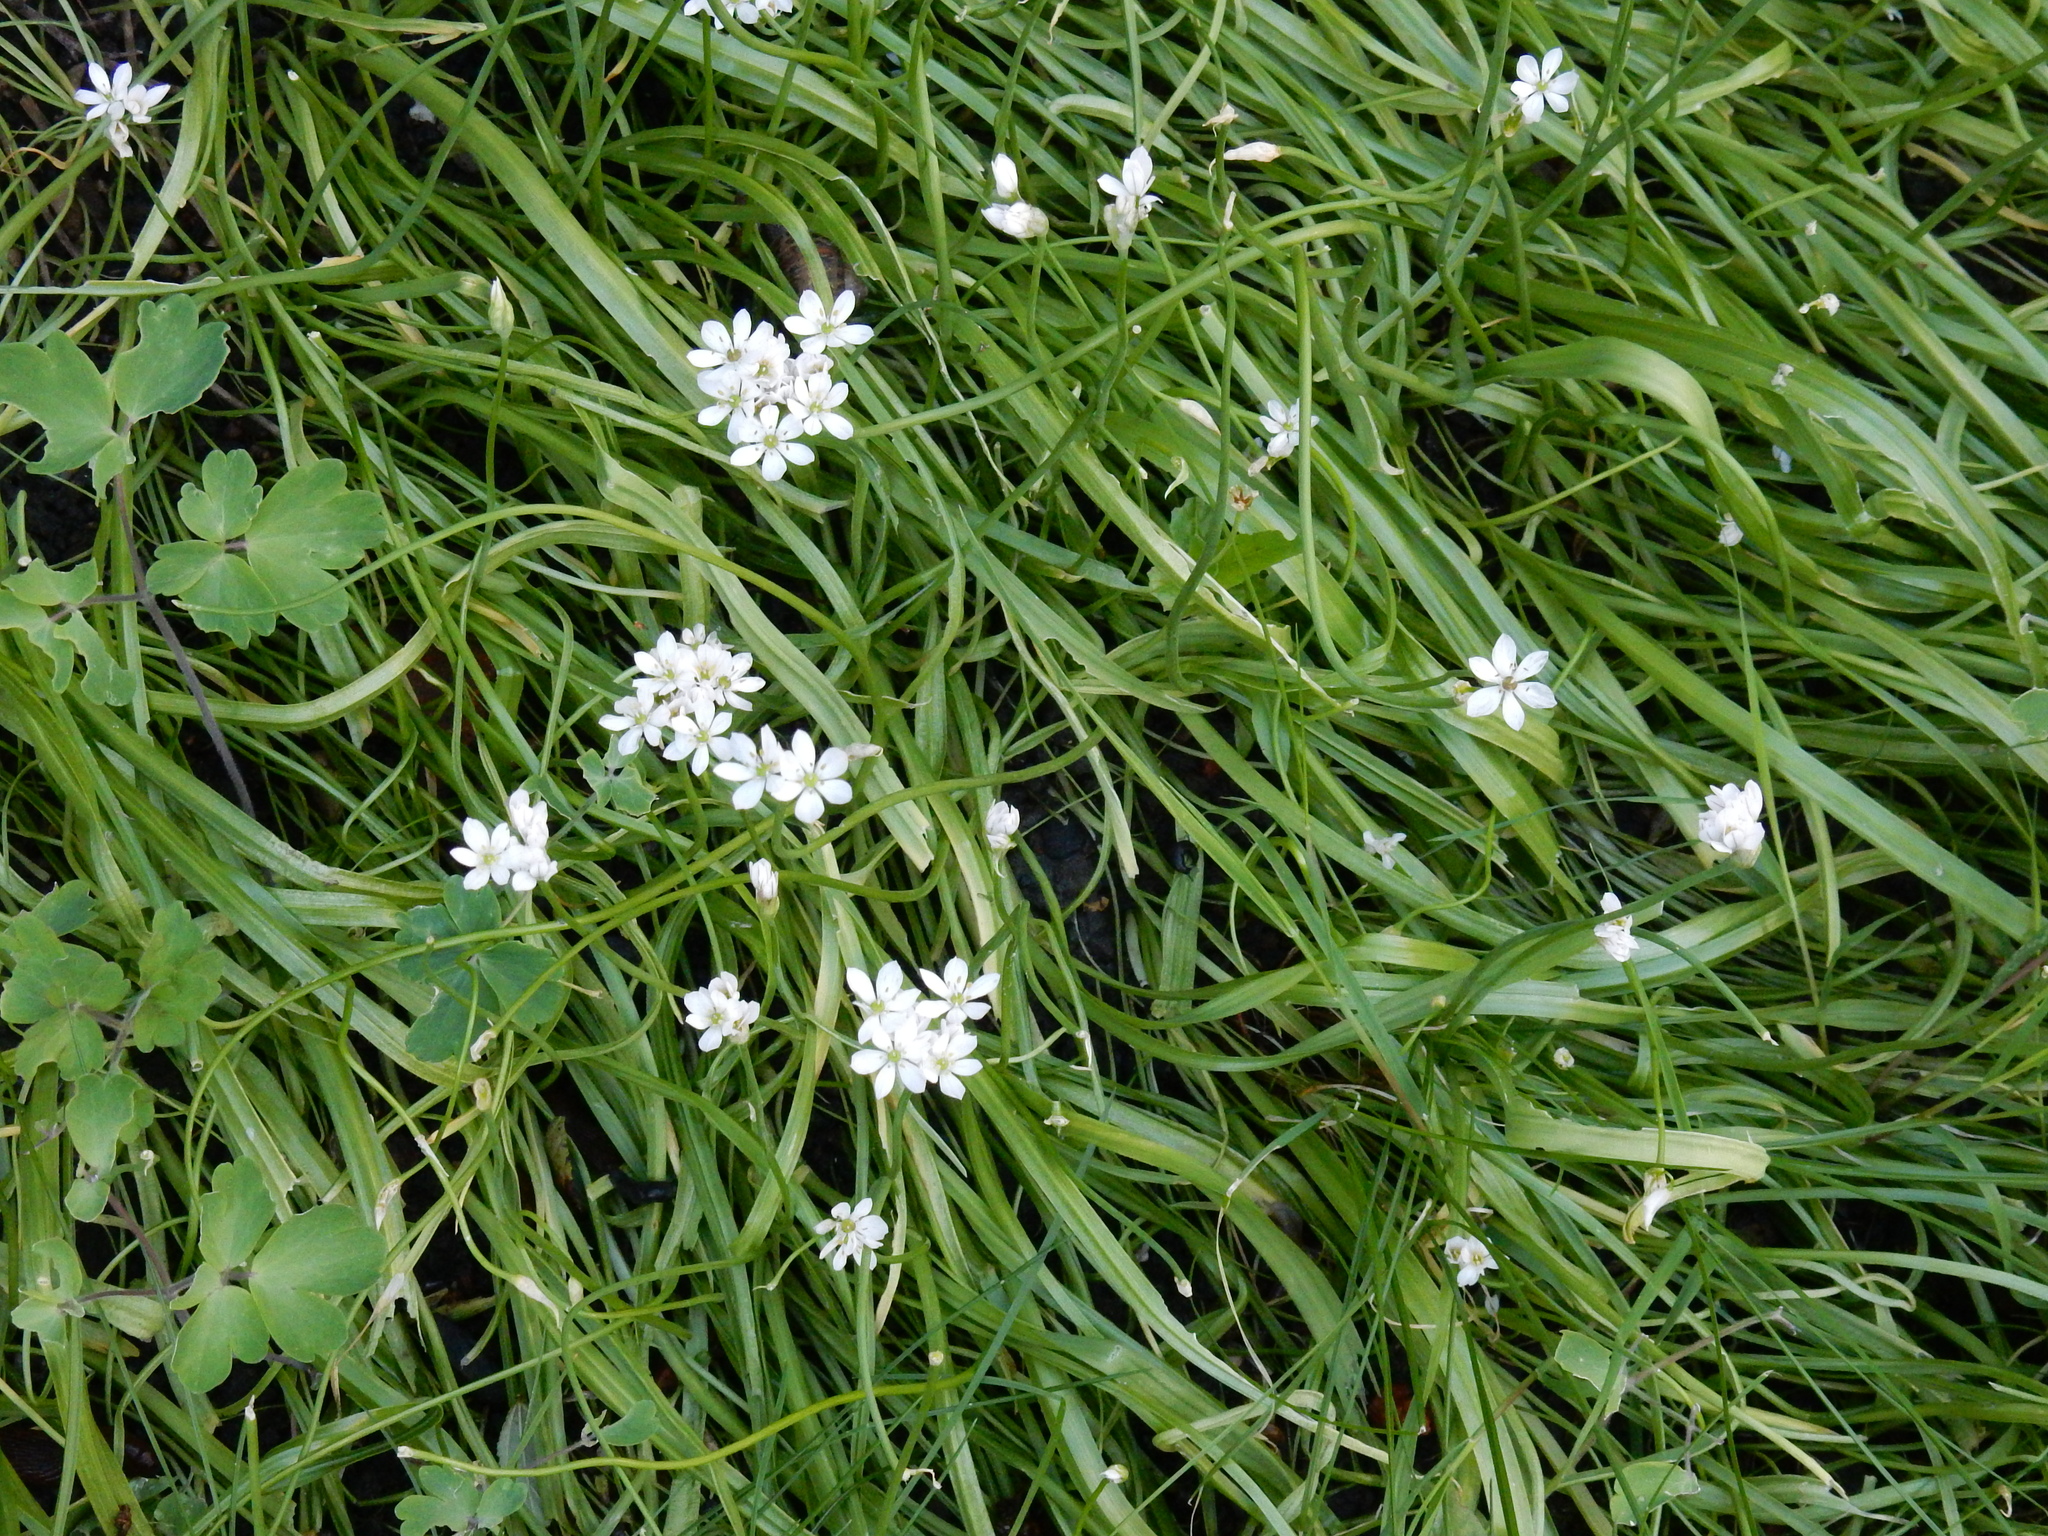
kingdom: Plantae
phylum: Tracheophyta
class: Liliopsida
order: Asparagales
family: Amaryllidaceae
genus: Allium
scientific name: Allium subhirsutum
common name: Hairy garlic
